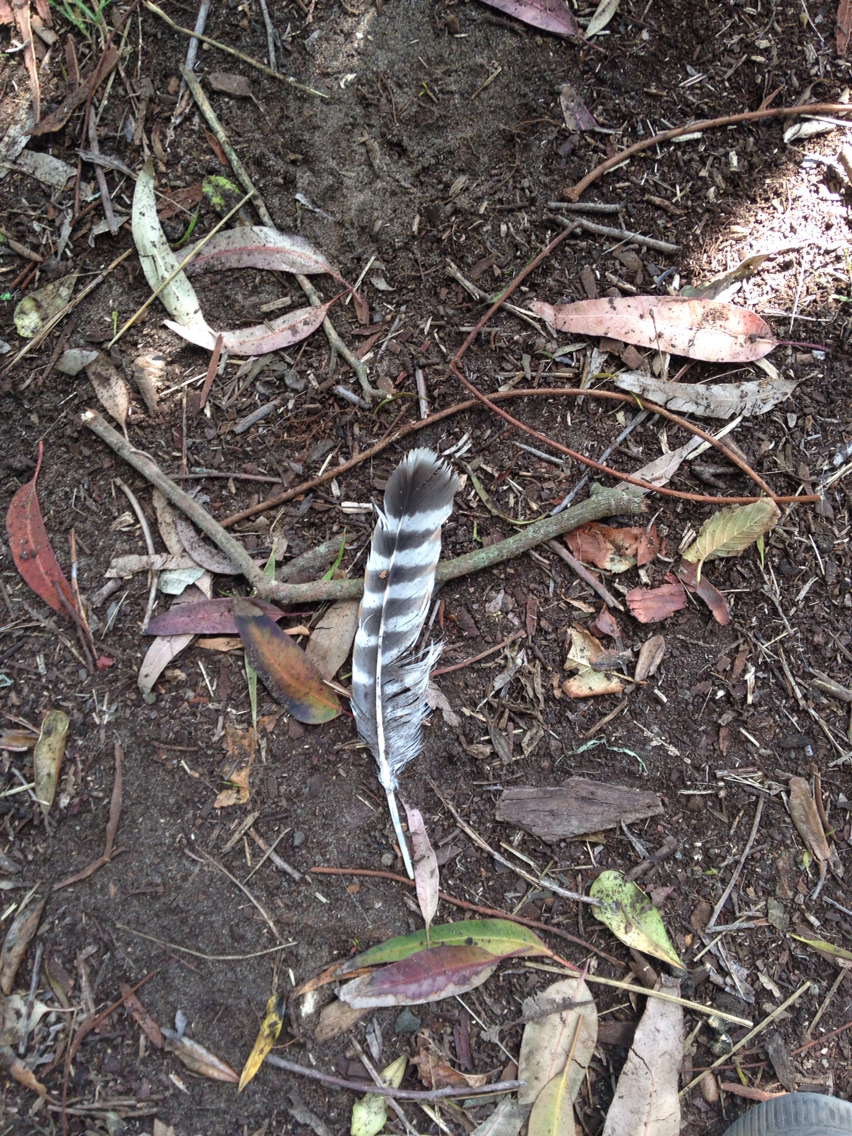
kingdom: Animalia
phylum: Chordata
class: Aves
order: Accipitriformes
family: Accipitridae
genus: Buteo
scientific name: Buteo lineatus
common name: Red-shouldered hawk
